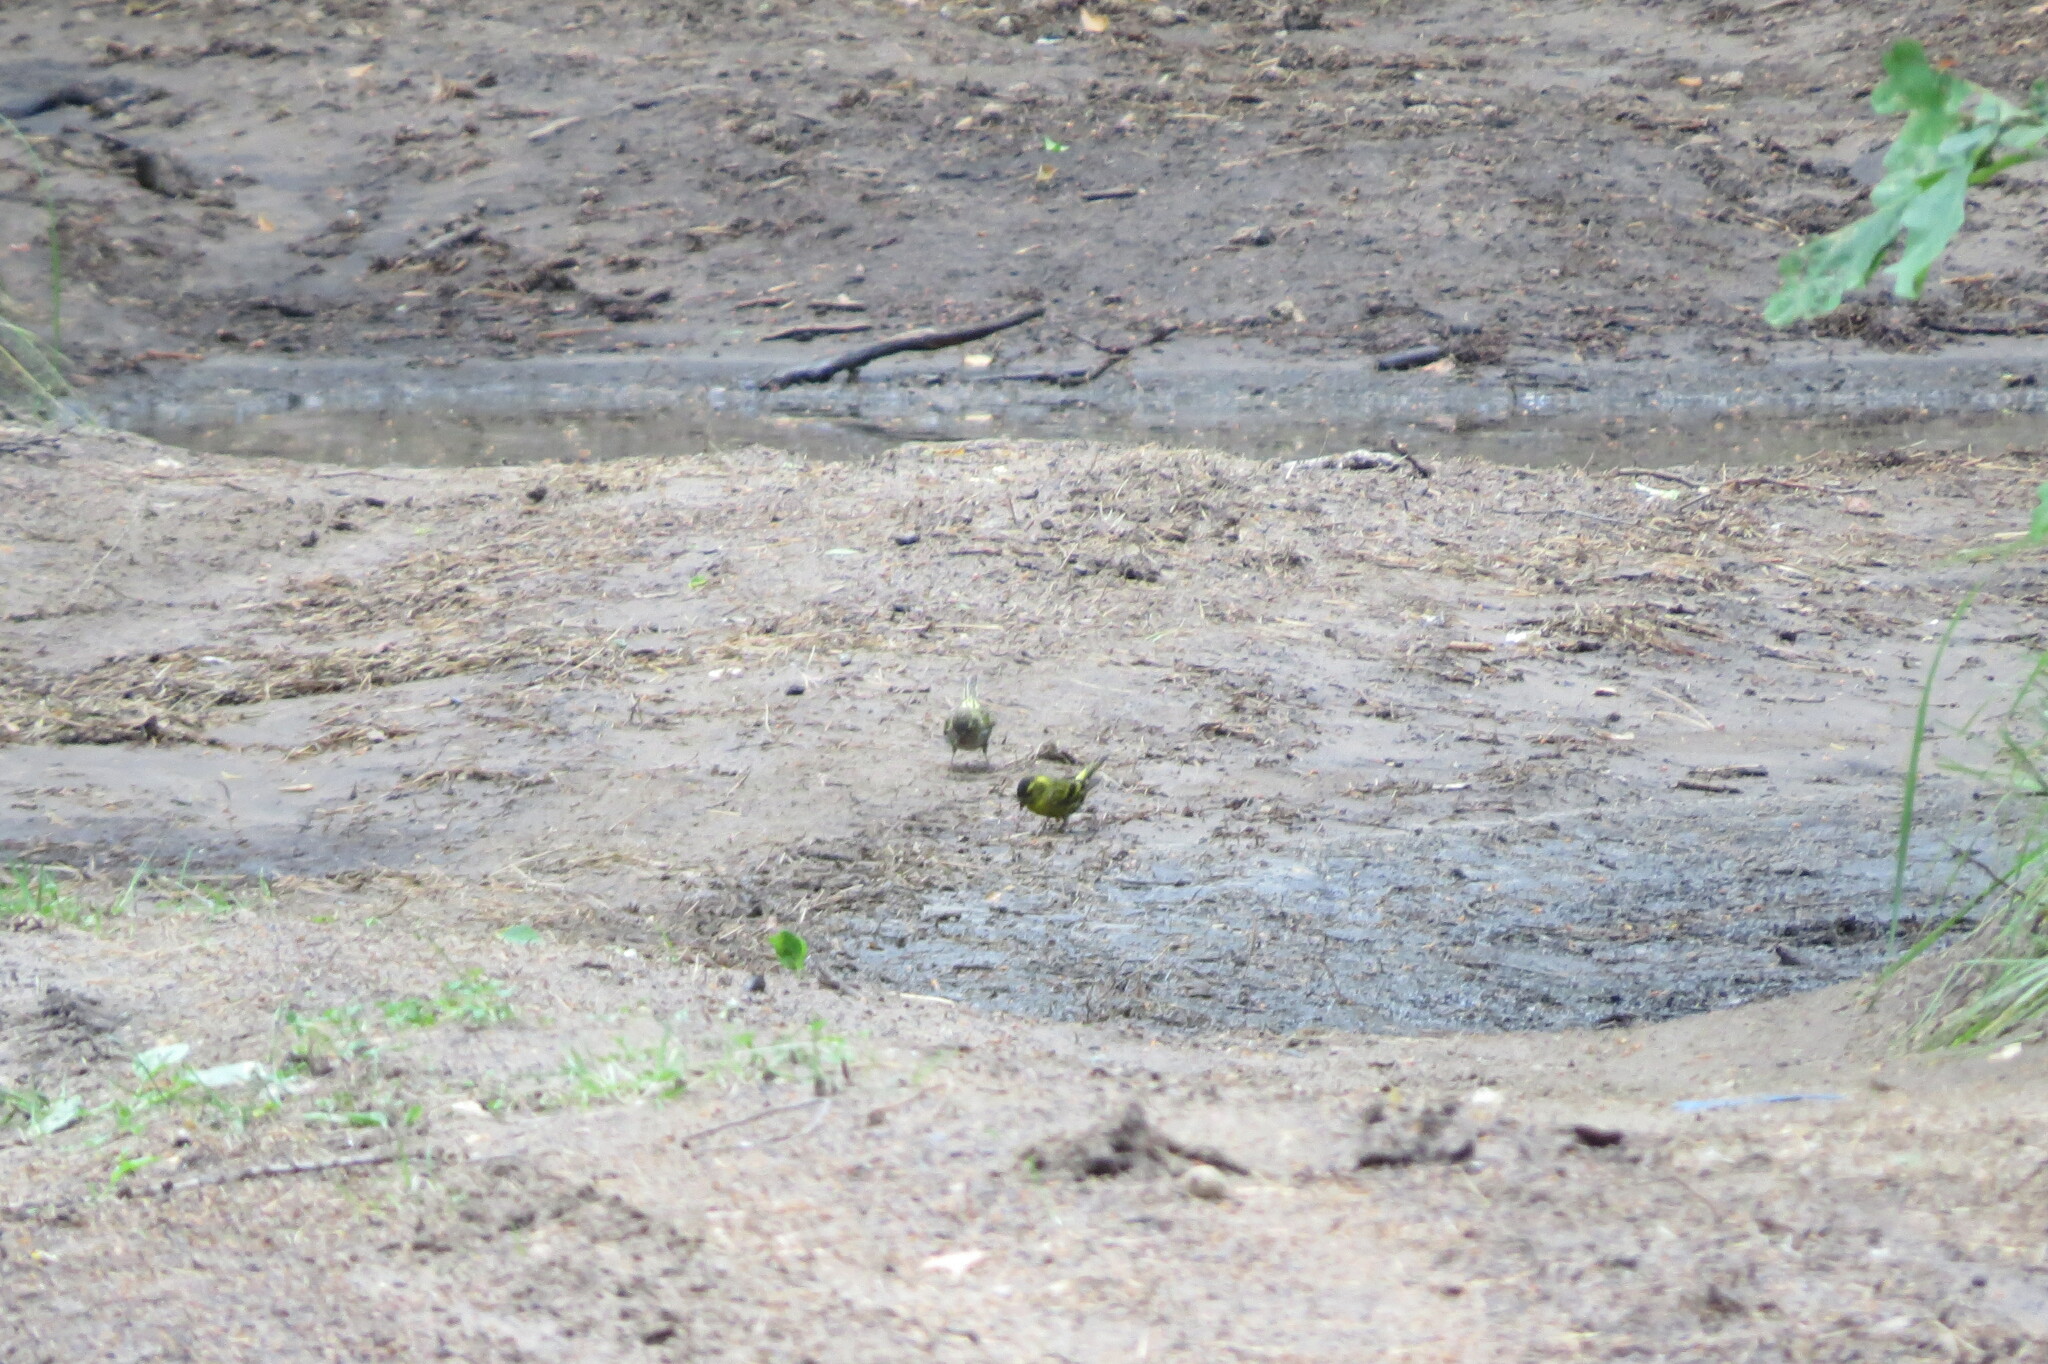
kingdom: Animalia
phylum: Chordata
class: Aves
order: Passeriformes
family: Fringillidae
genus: Spinus
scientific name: Spinus spinus
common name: Eurasian siskin
